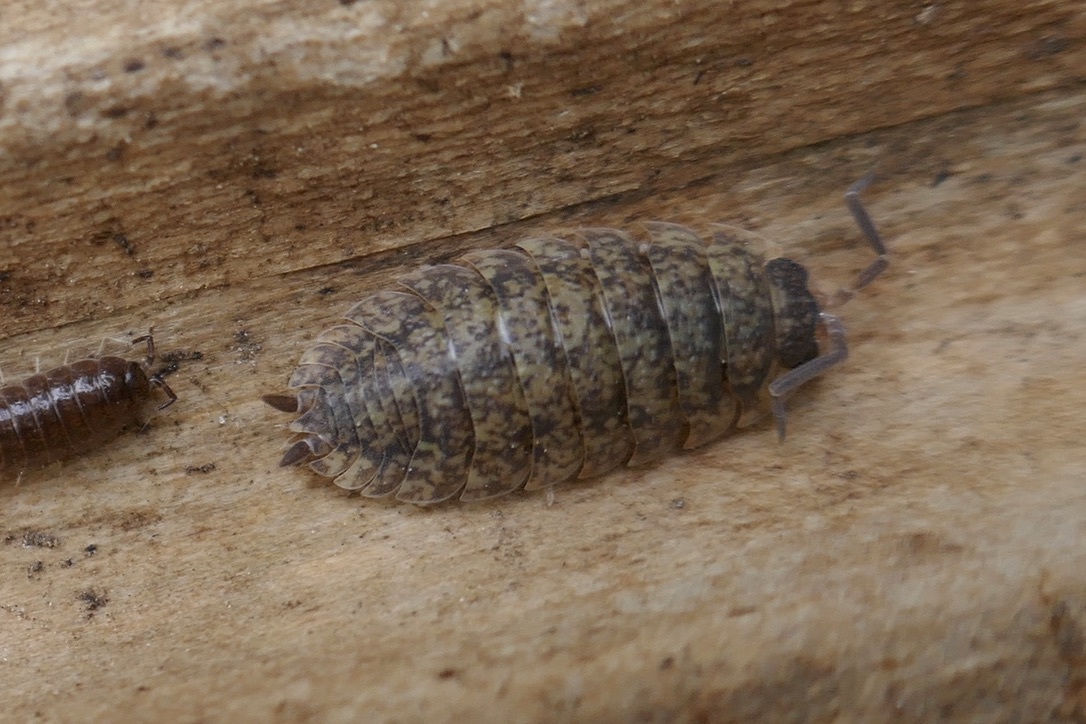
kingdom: Animalia
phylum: Arthropoda
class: Malacostraca
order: Isopoda
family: Porcellionidae
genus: Porcellio
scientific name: Porcellio scaber
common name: Common rough woodlouse
